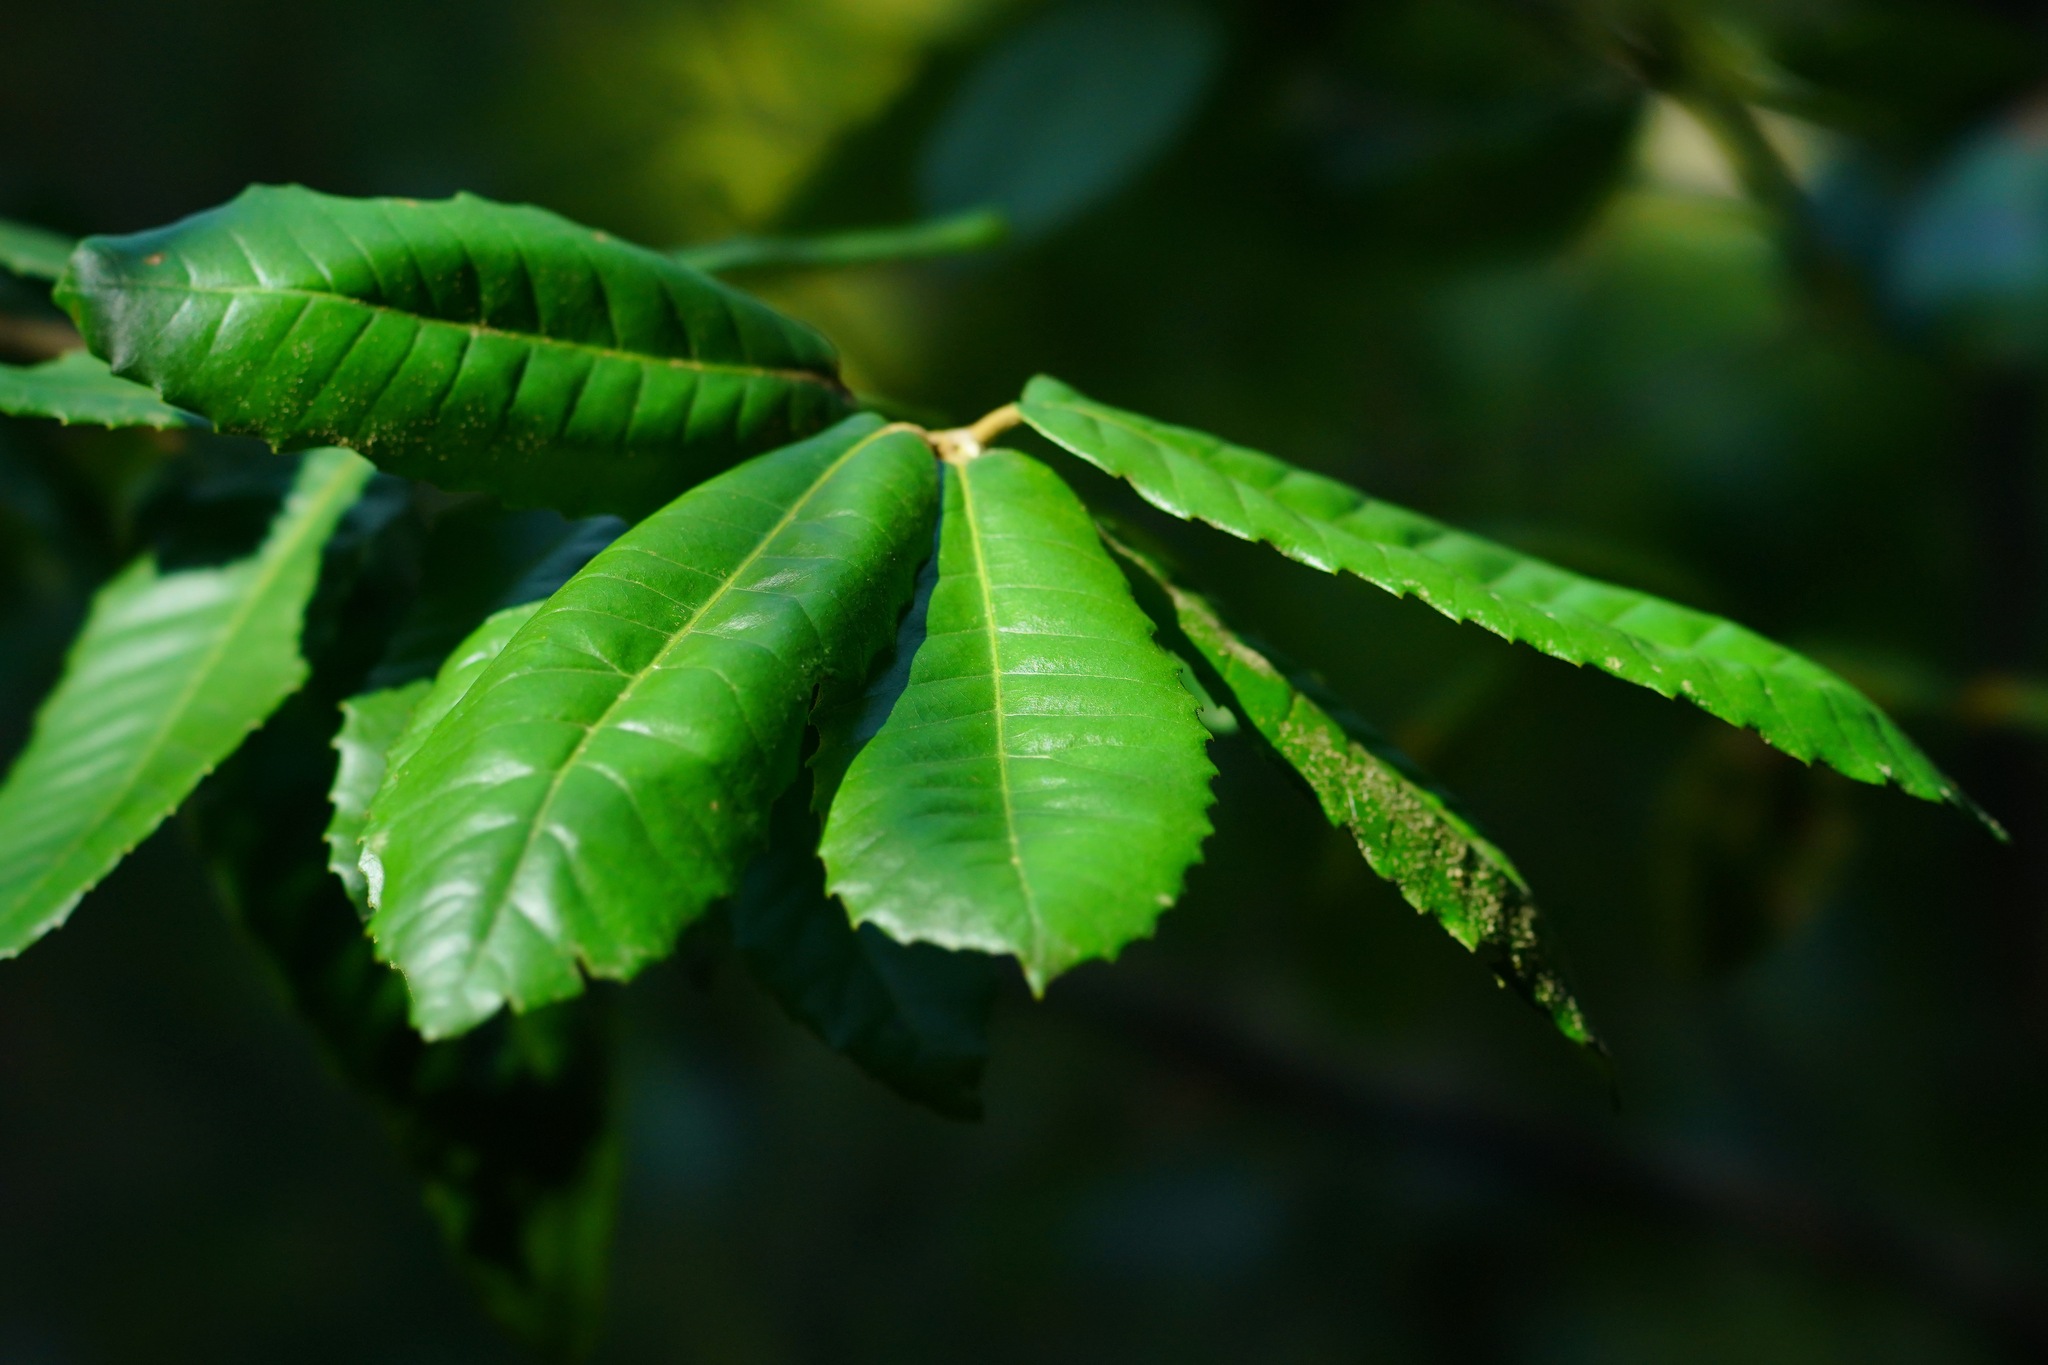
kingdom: Plantae
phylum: Tracheophyta
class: Magnoliopsida
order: Fagales
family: Fagaceae
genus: Notholithocarpus
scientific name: Notholithocarpus densiflorus
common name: Tan bark oak
